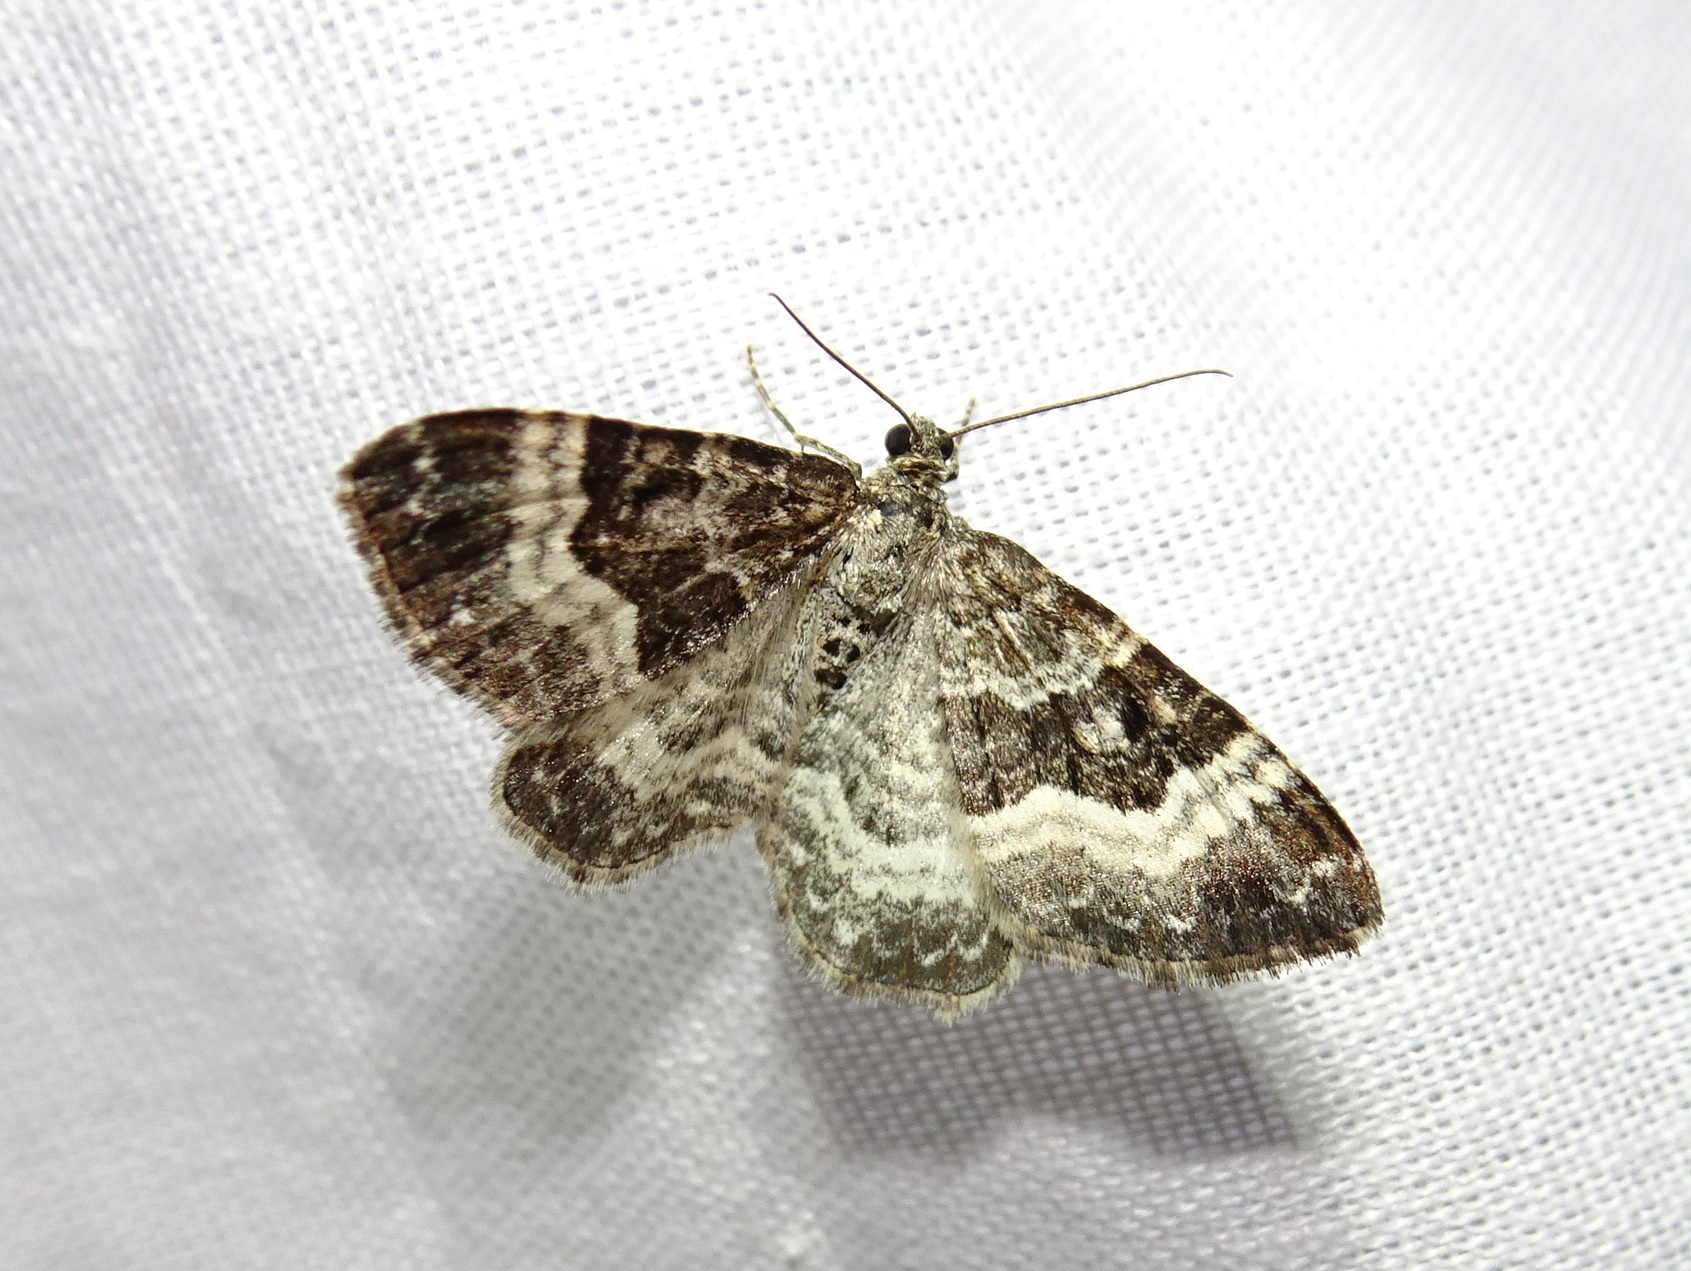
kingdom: Animalia
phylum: Arthropoda
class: Insecta
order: Lepidoptera
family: Geometridae
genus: Epirrhoe
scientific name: Epirrhoe alternata
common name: Common carpet
